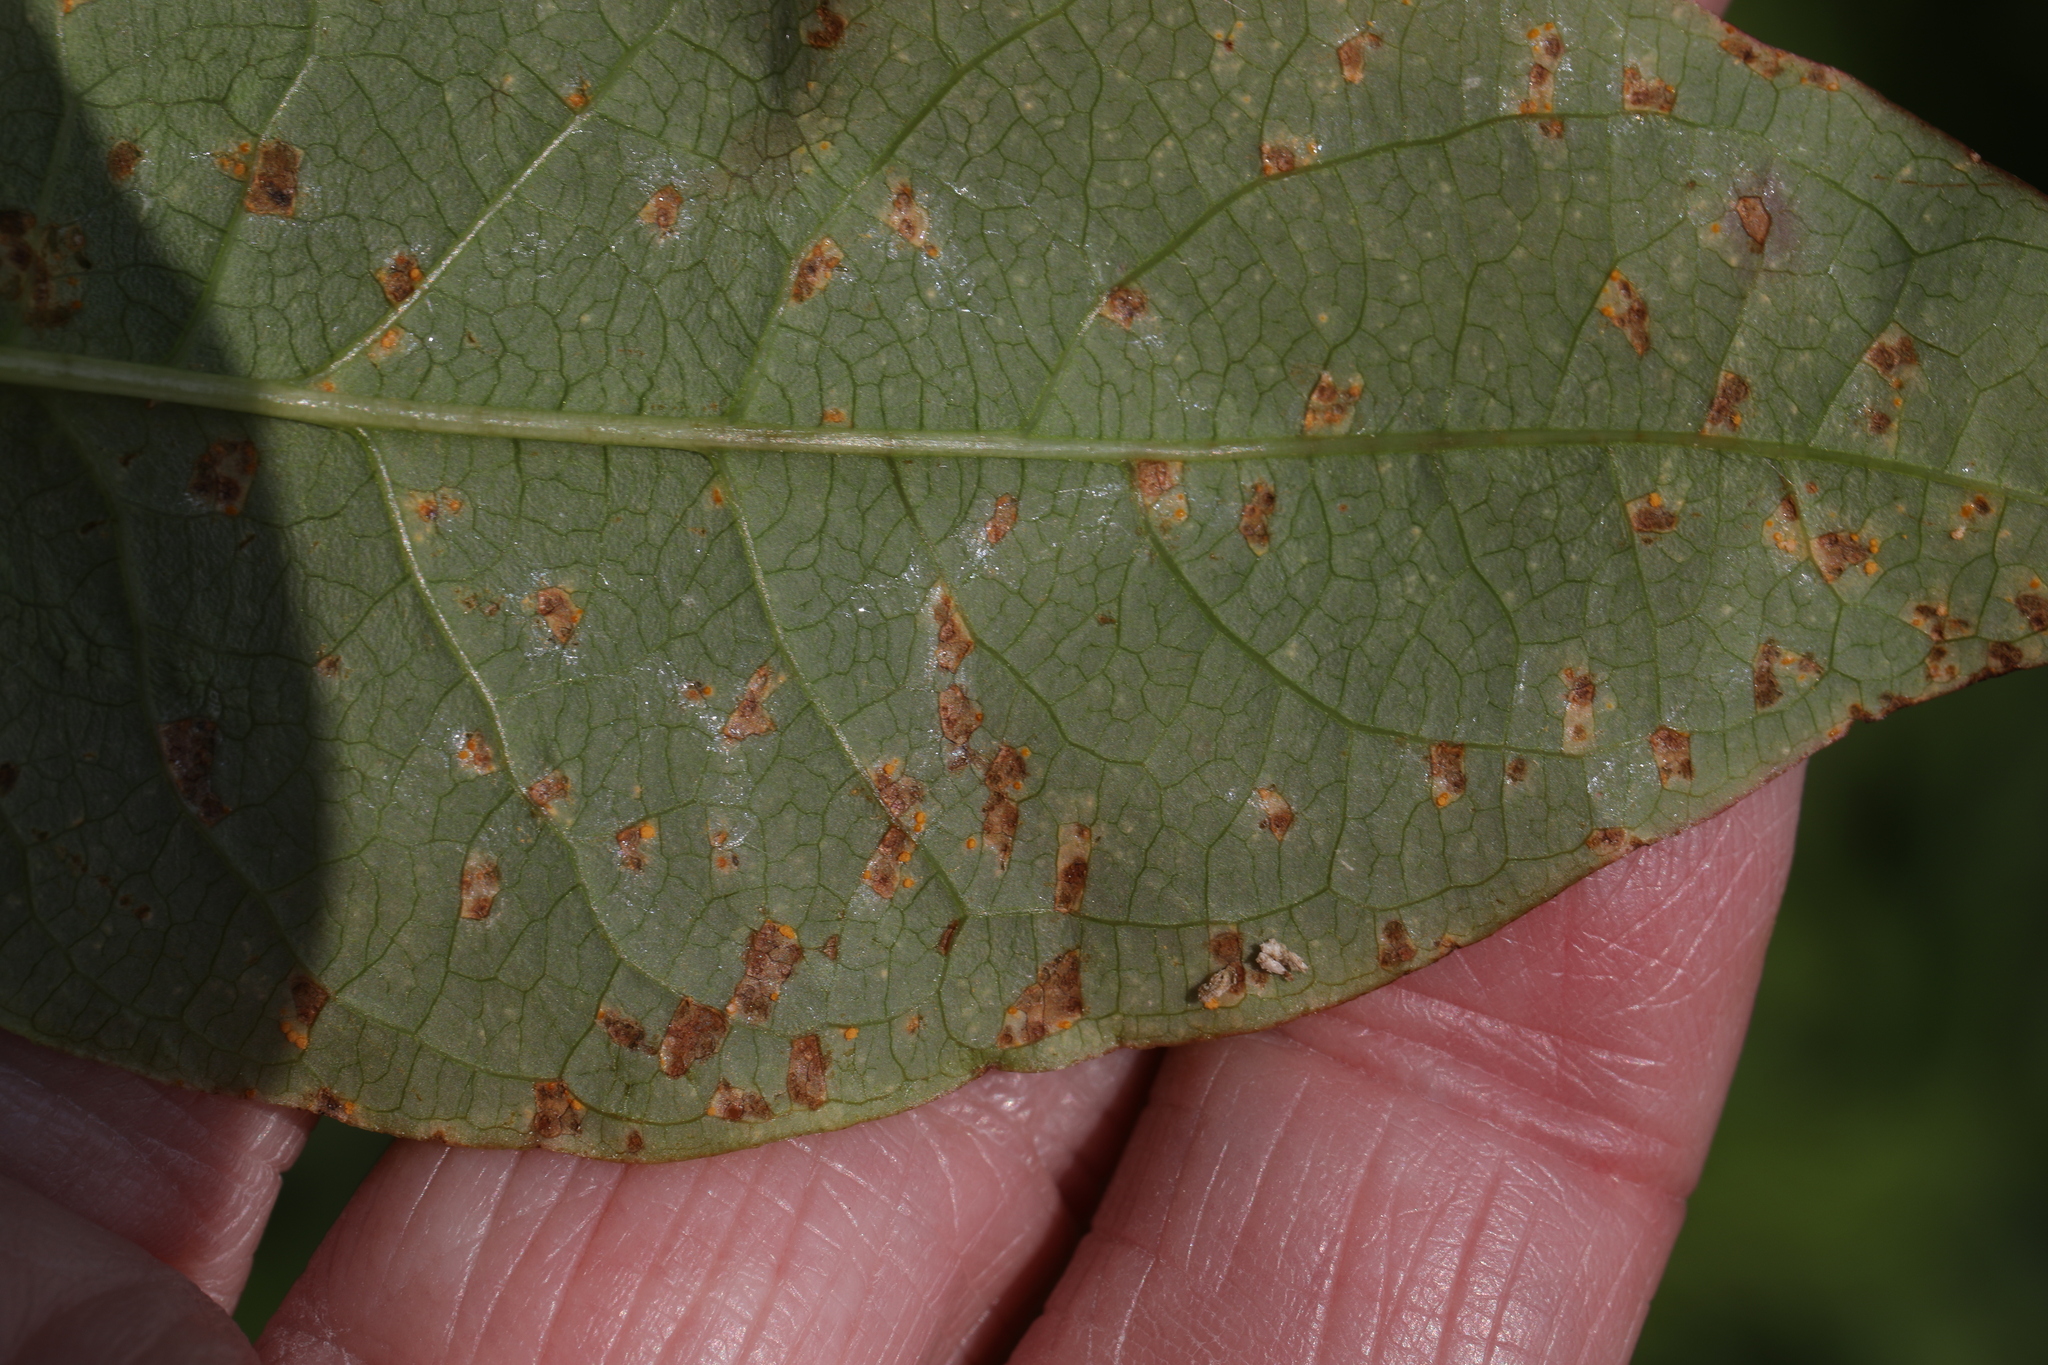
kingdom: Fungi
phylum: Basidiomycota
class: Pucciniomycetes
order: Pucciniales
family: Melampsoraceae
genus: Melampsora
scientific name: Melampsora
